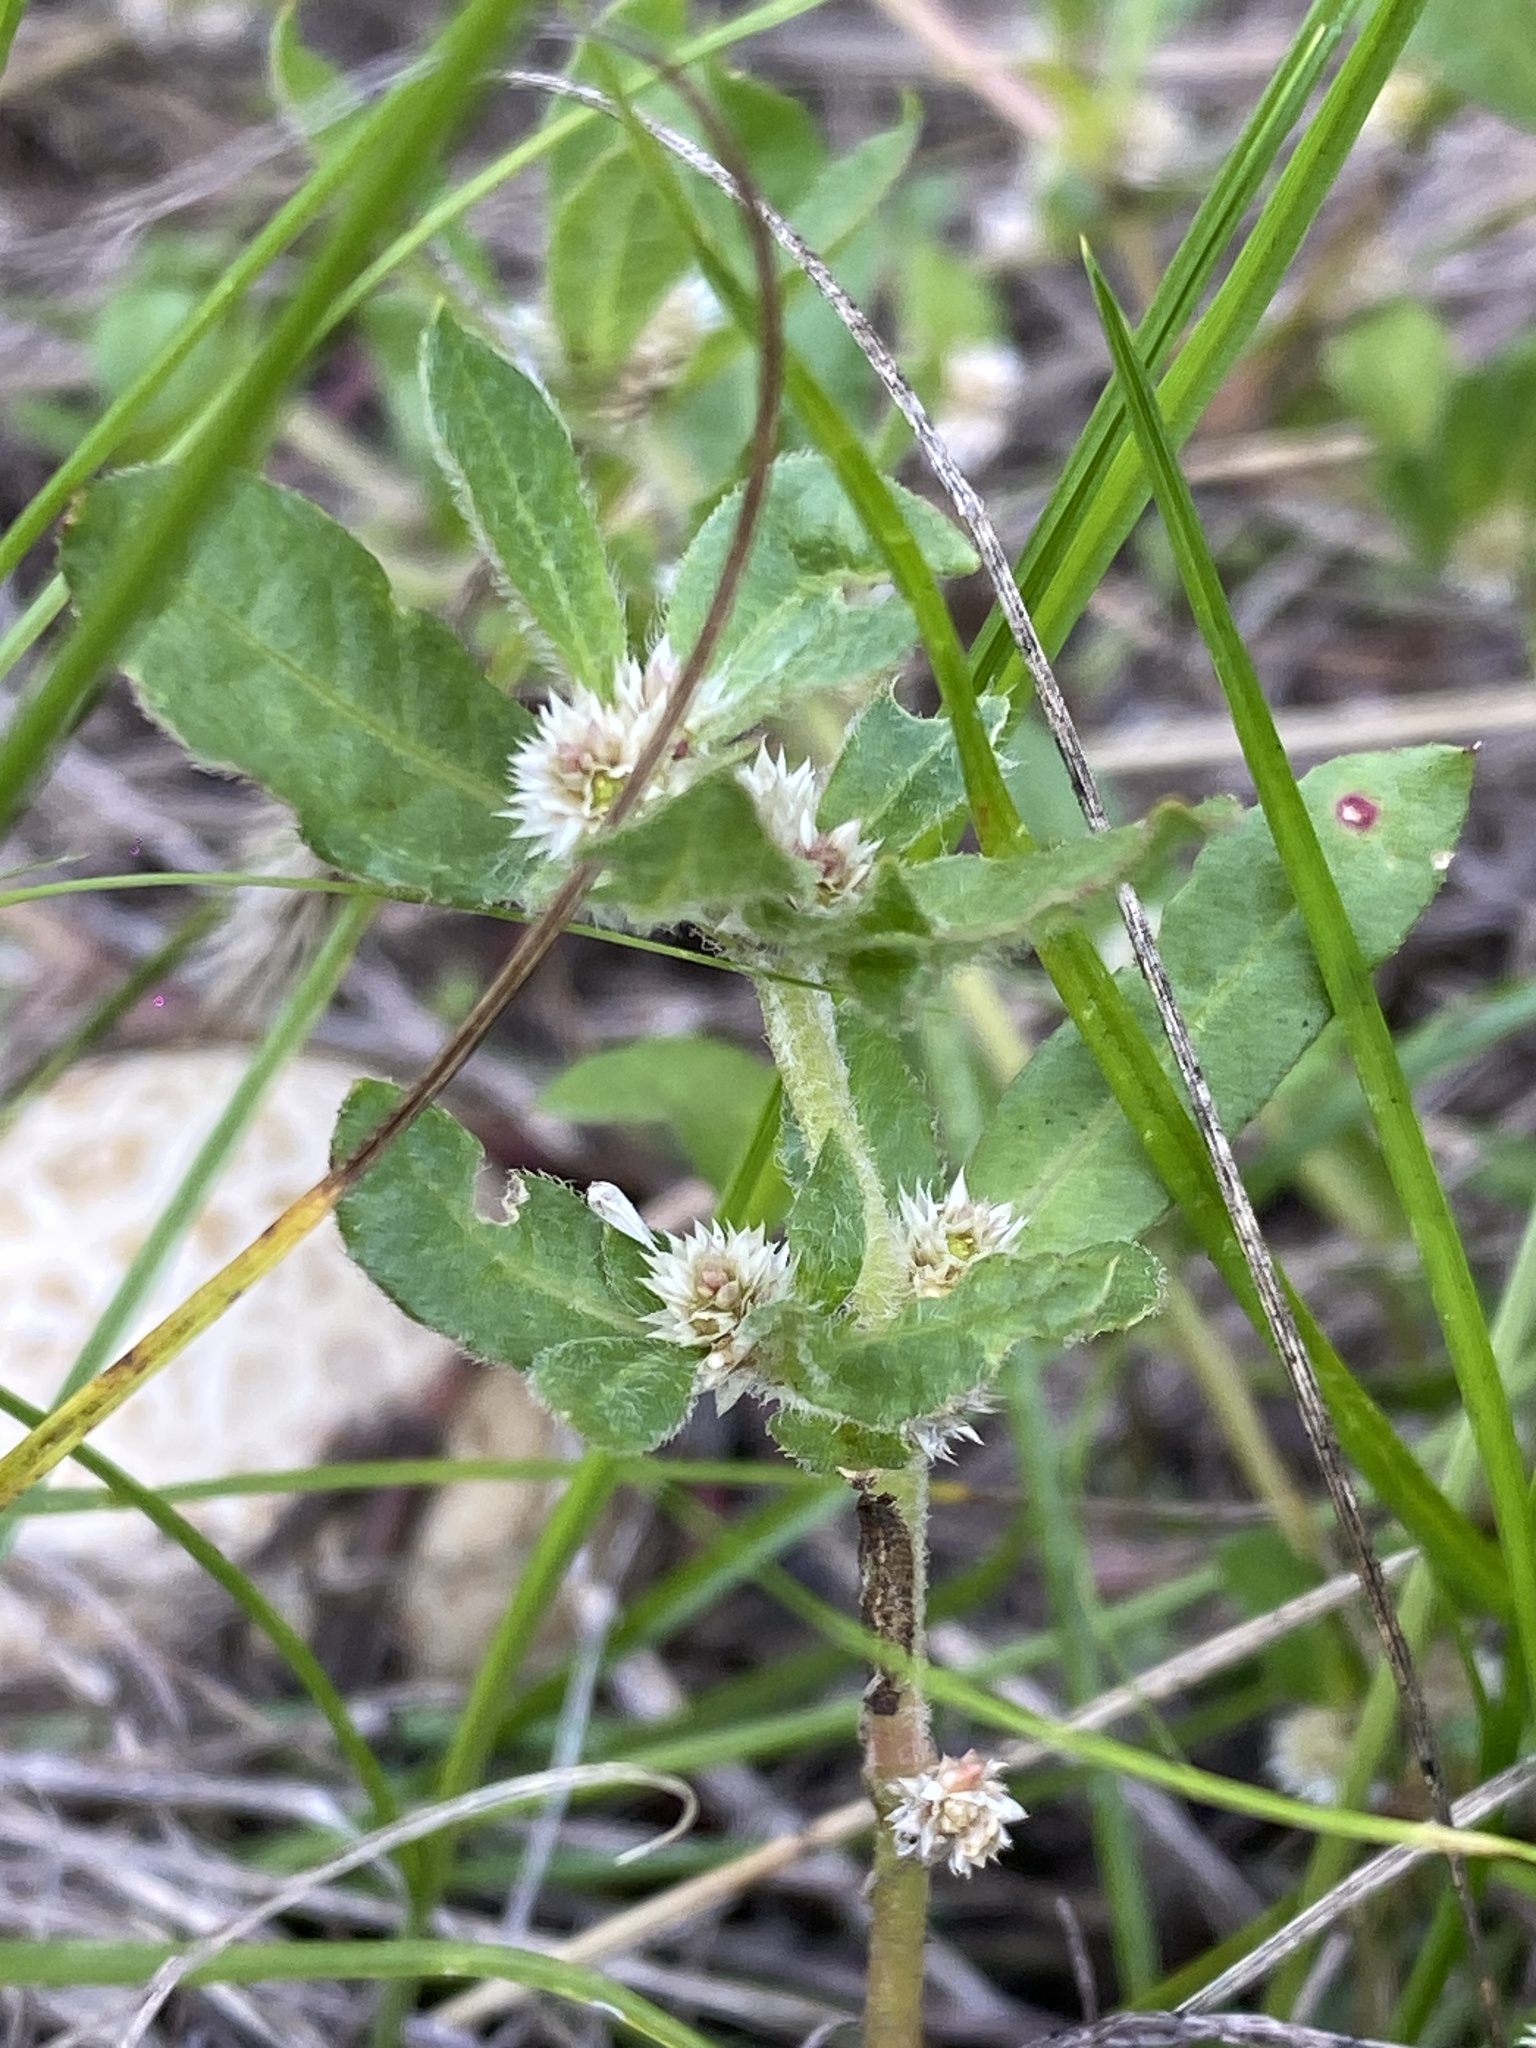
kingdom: Plantae
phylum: Tracheophyta
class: Magnoliopsida
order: Caryophyllales
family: Amaranthaceae
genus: Alternanthera
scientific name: Alternanthera nana
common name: Hairy joyweed
